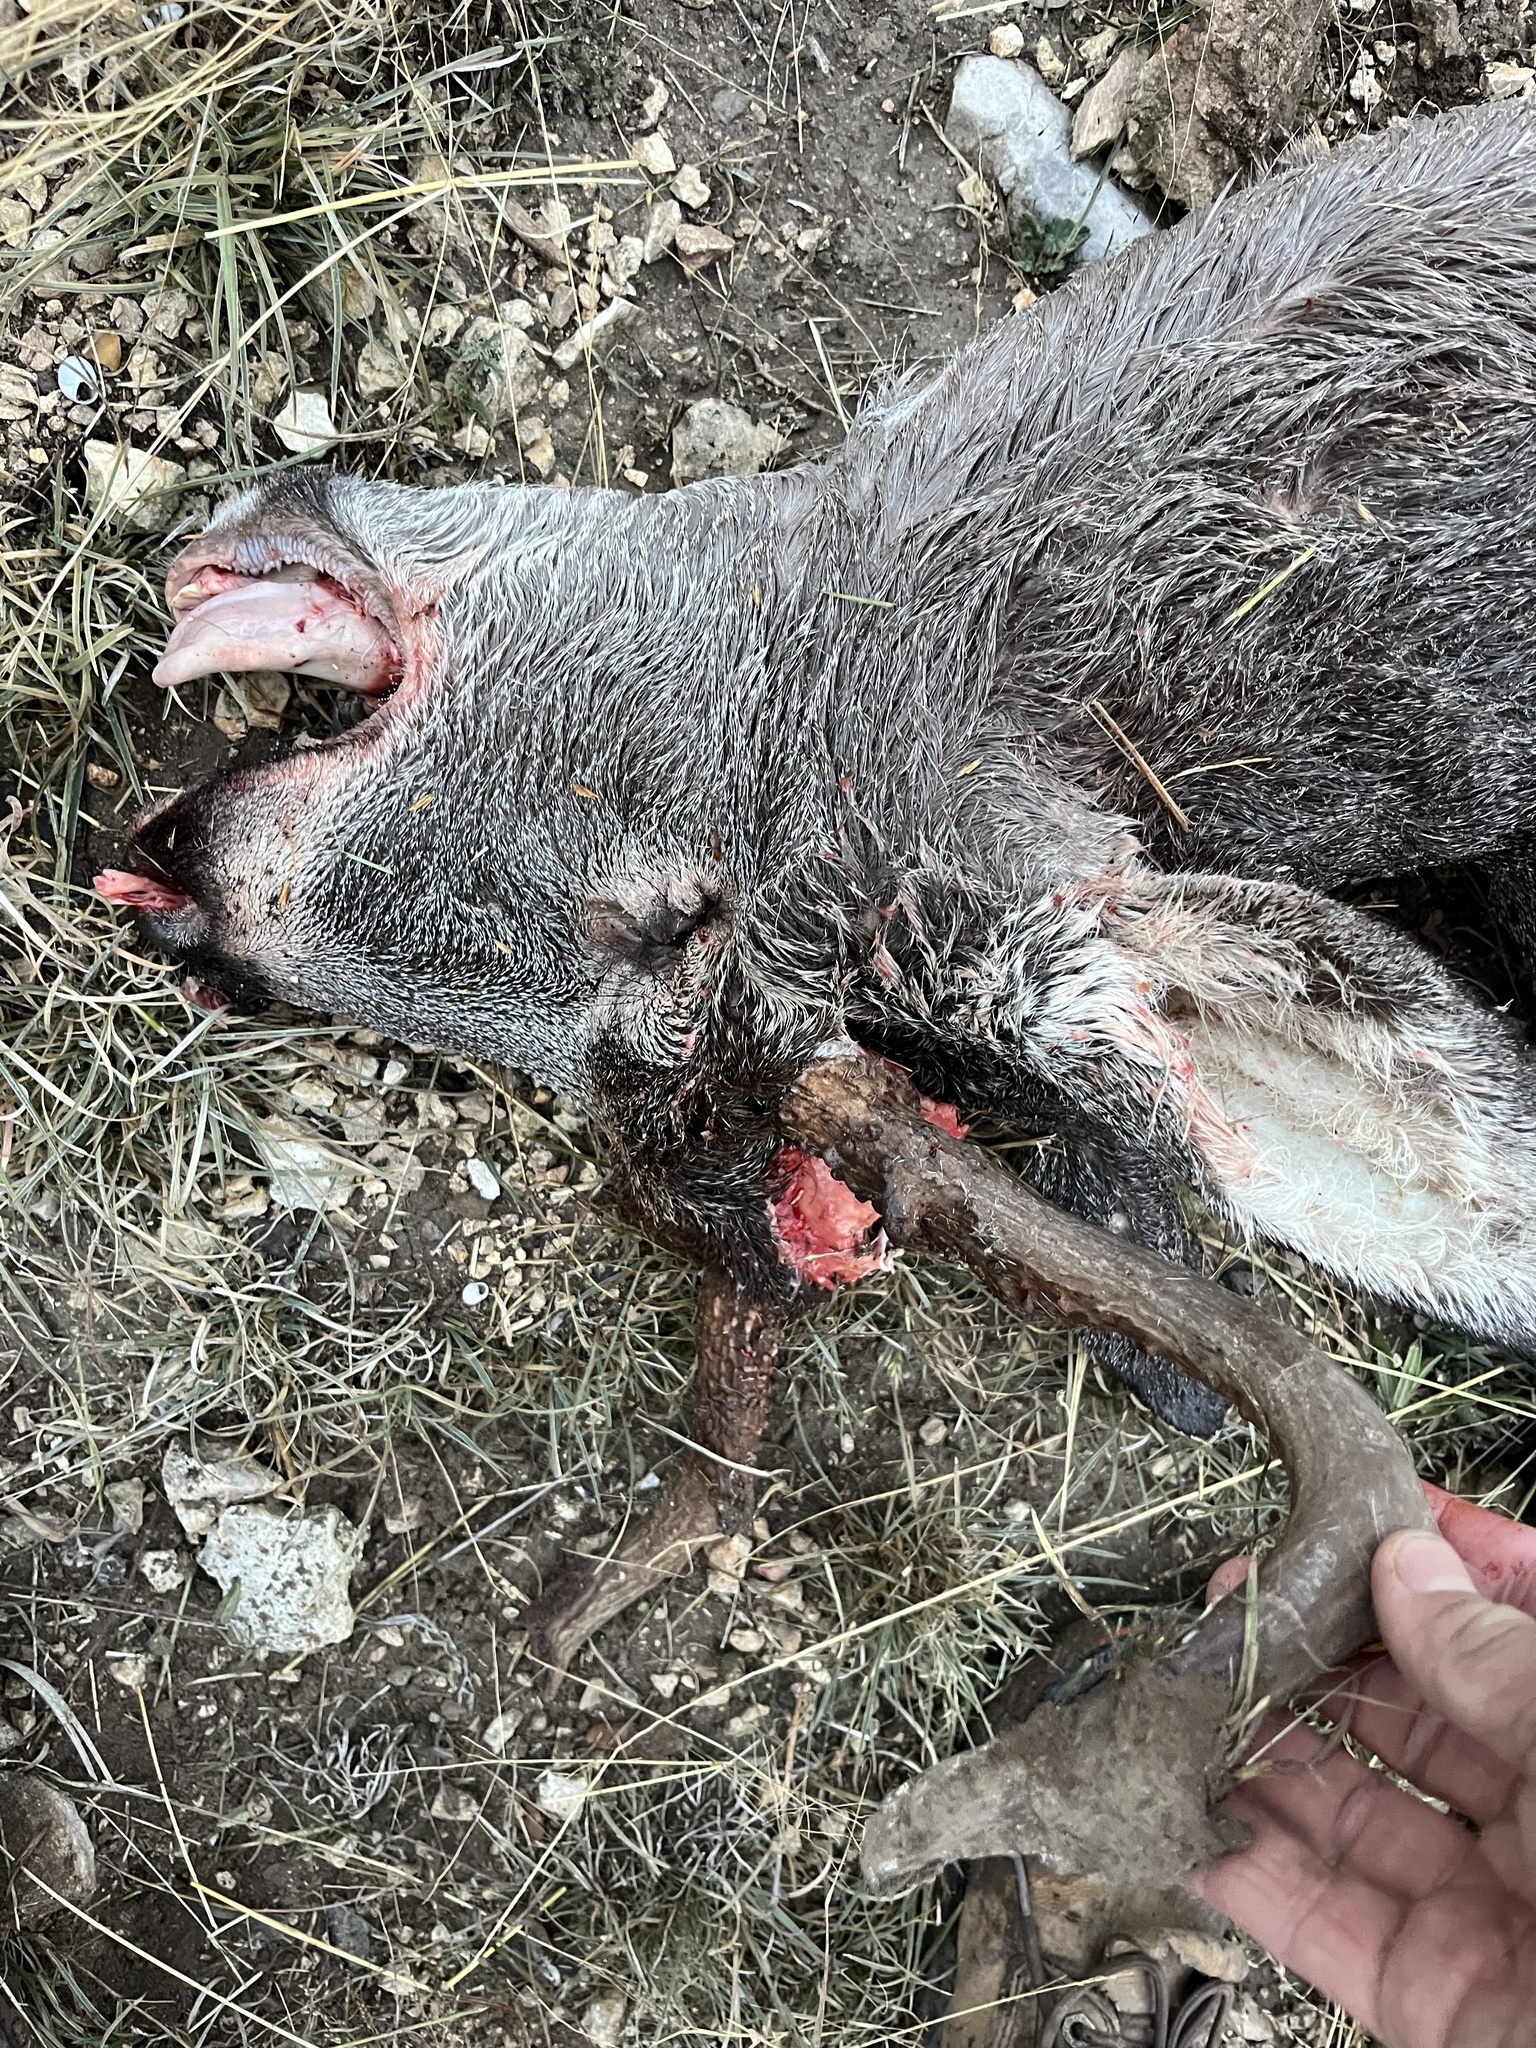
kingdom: Animalia
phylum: Chordata
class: Mammalia
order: Artiodactyla
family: Cervidae
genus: Odocoileus
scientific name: Odocoileus virginianus
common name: White-tailed deer
